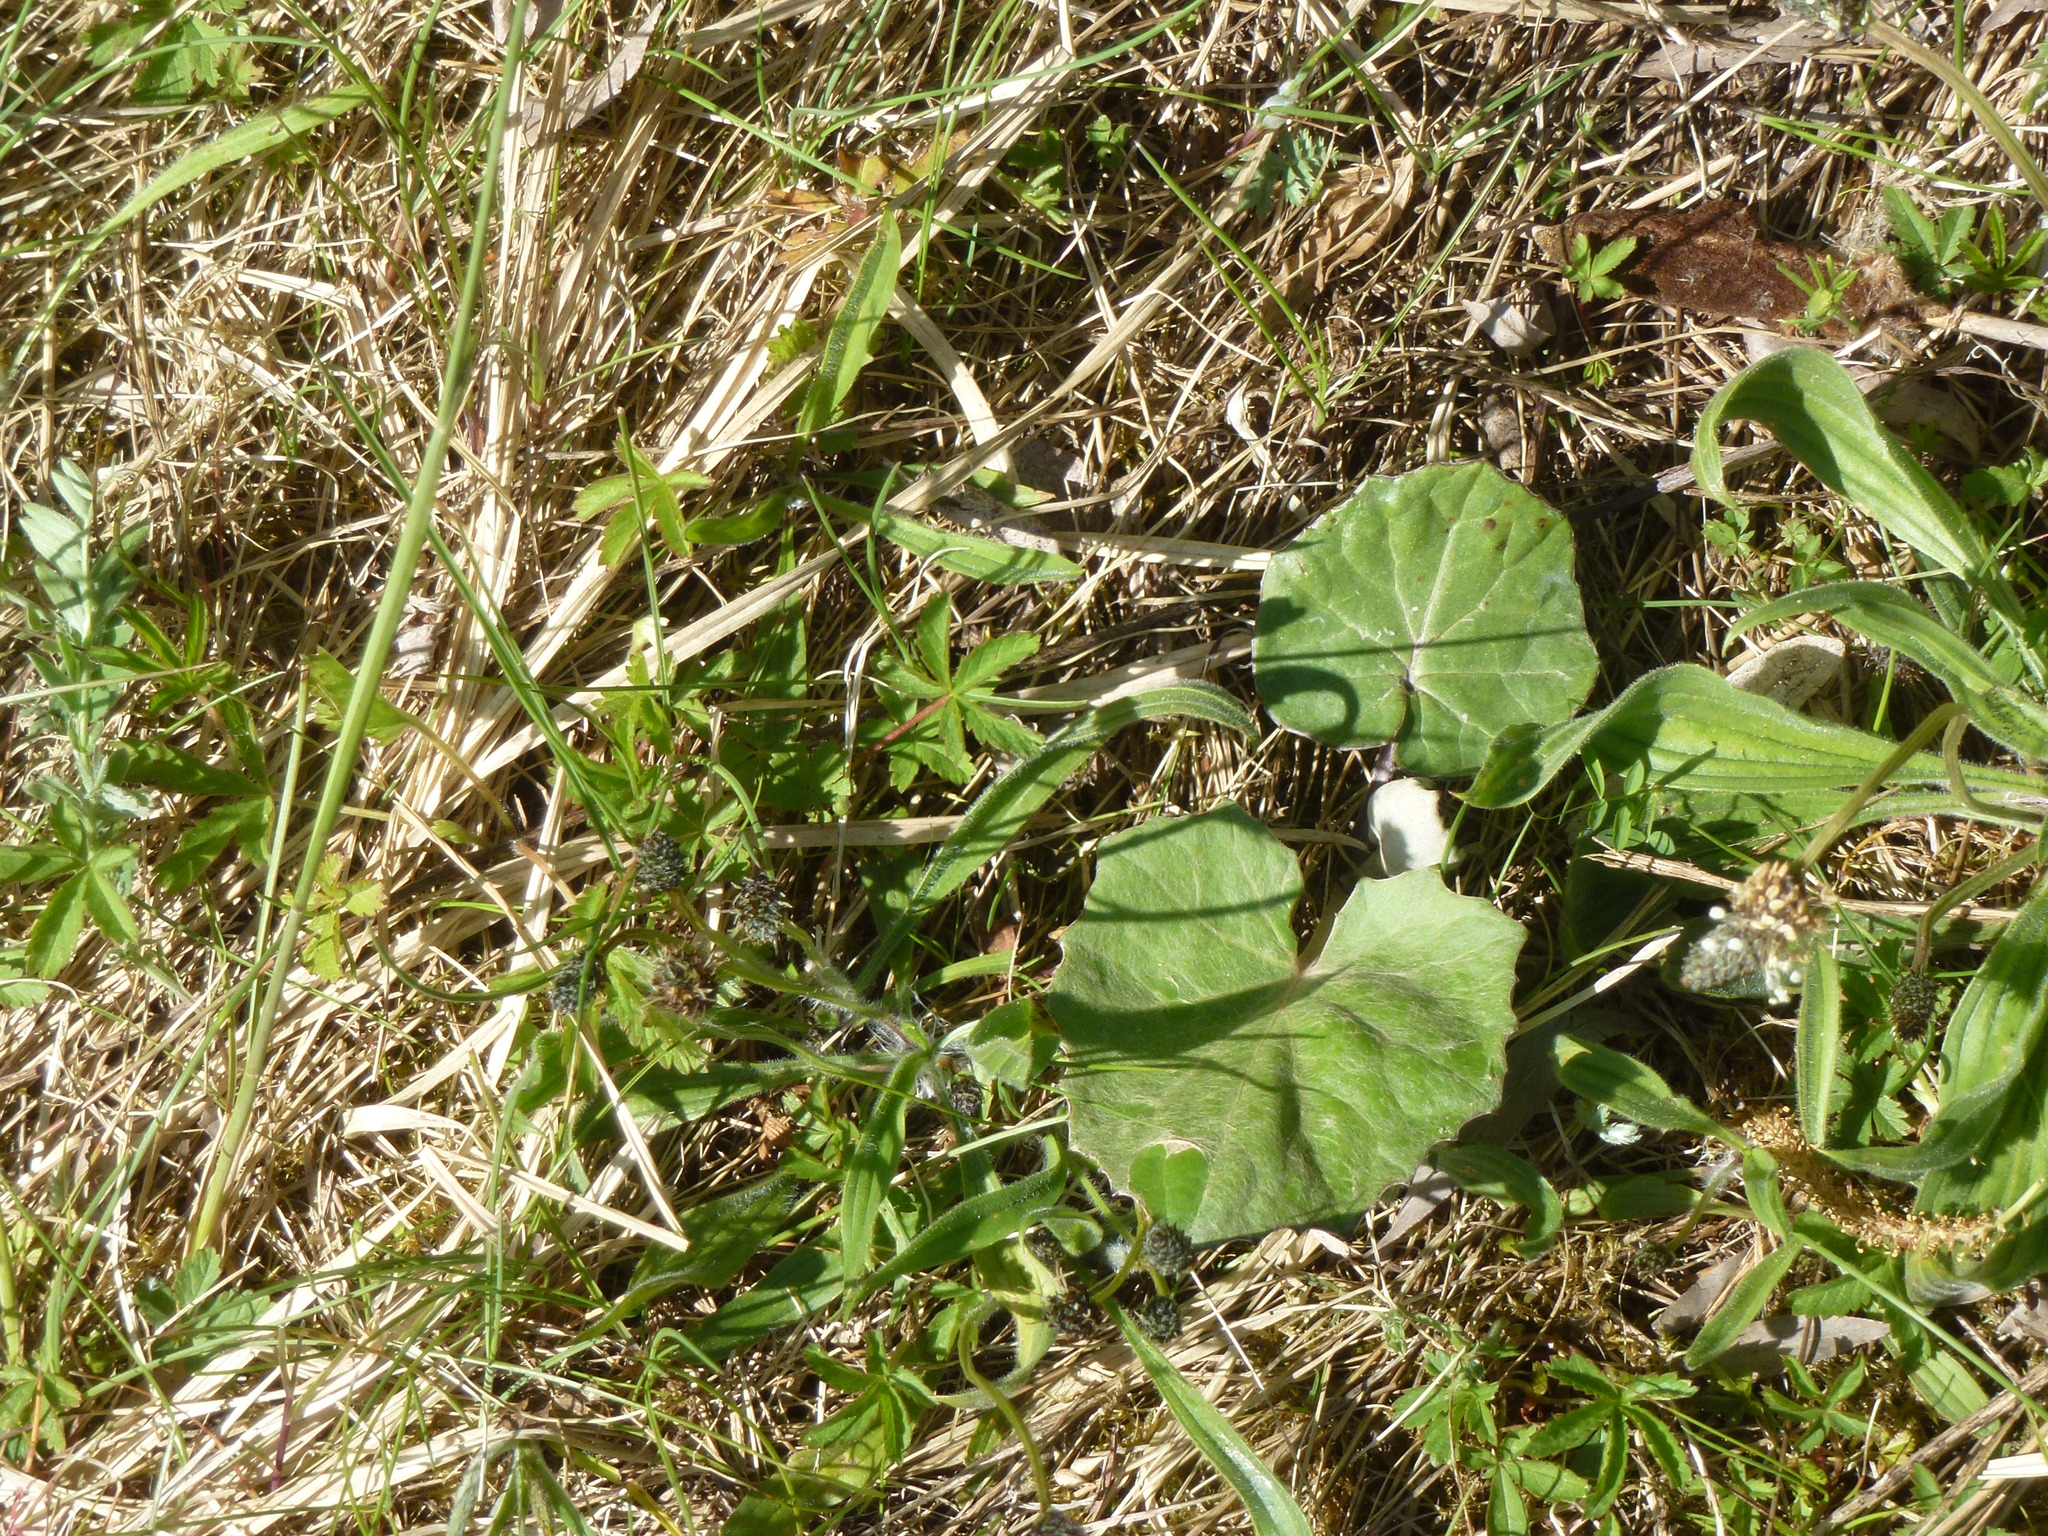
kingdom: Plantae
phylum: Tracheophyta
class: Magnoliopsida
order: Asterales
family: Asteraceae
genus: Tussilago
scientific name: Tussilago farfara
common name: Coltsfoot
